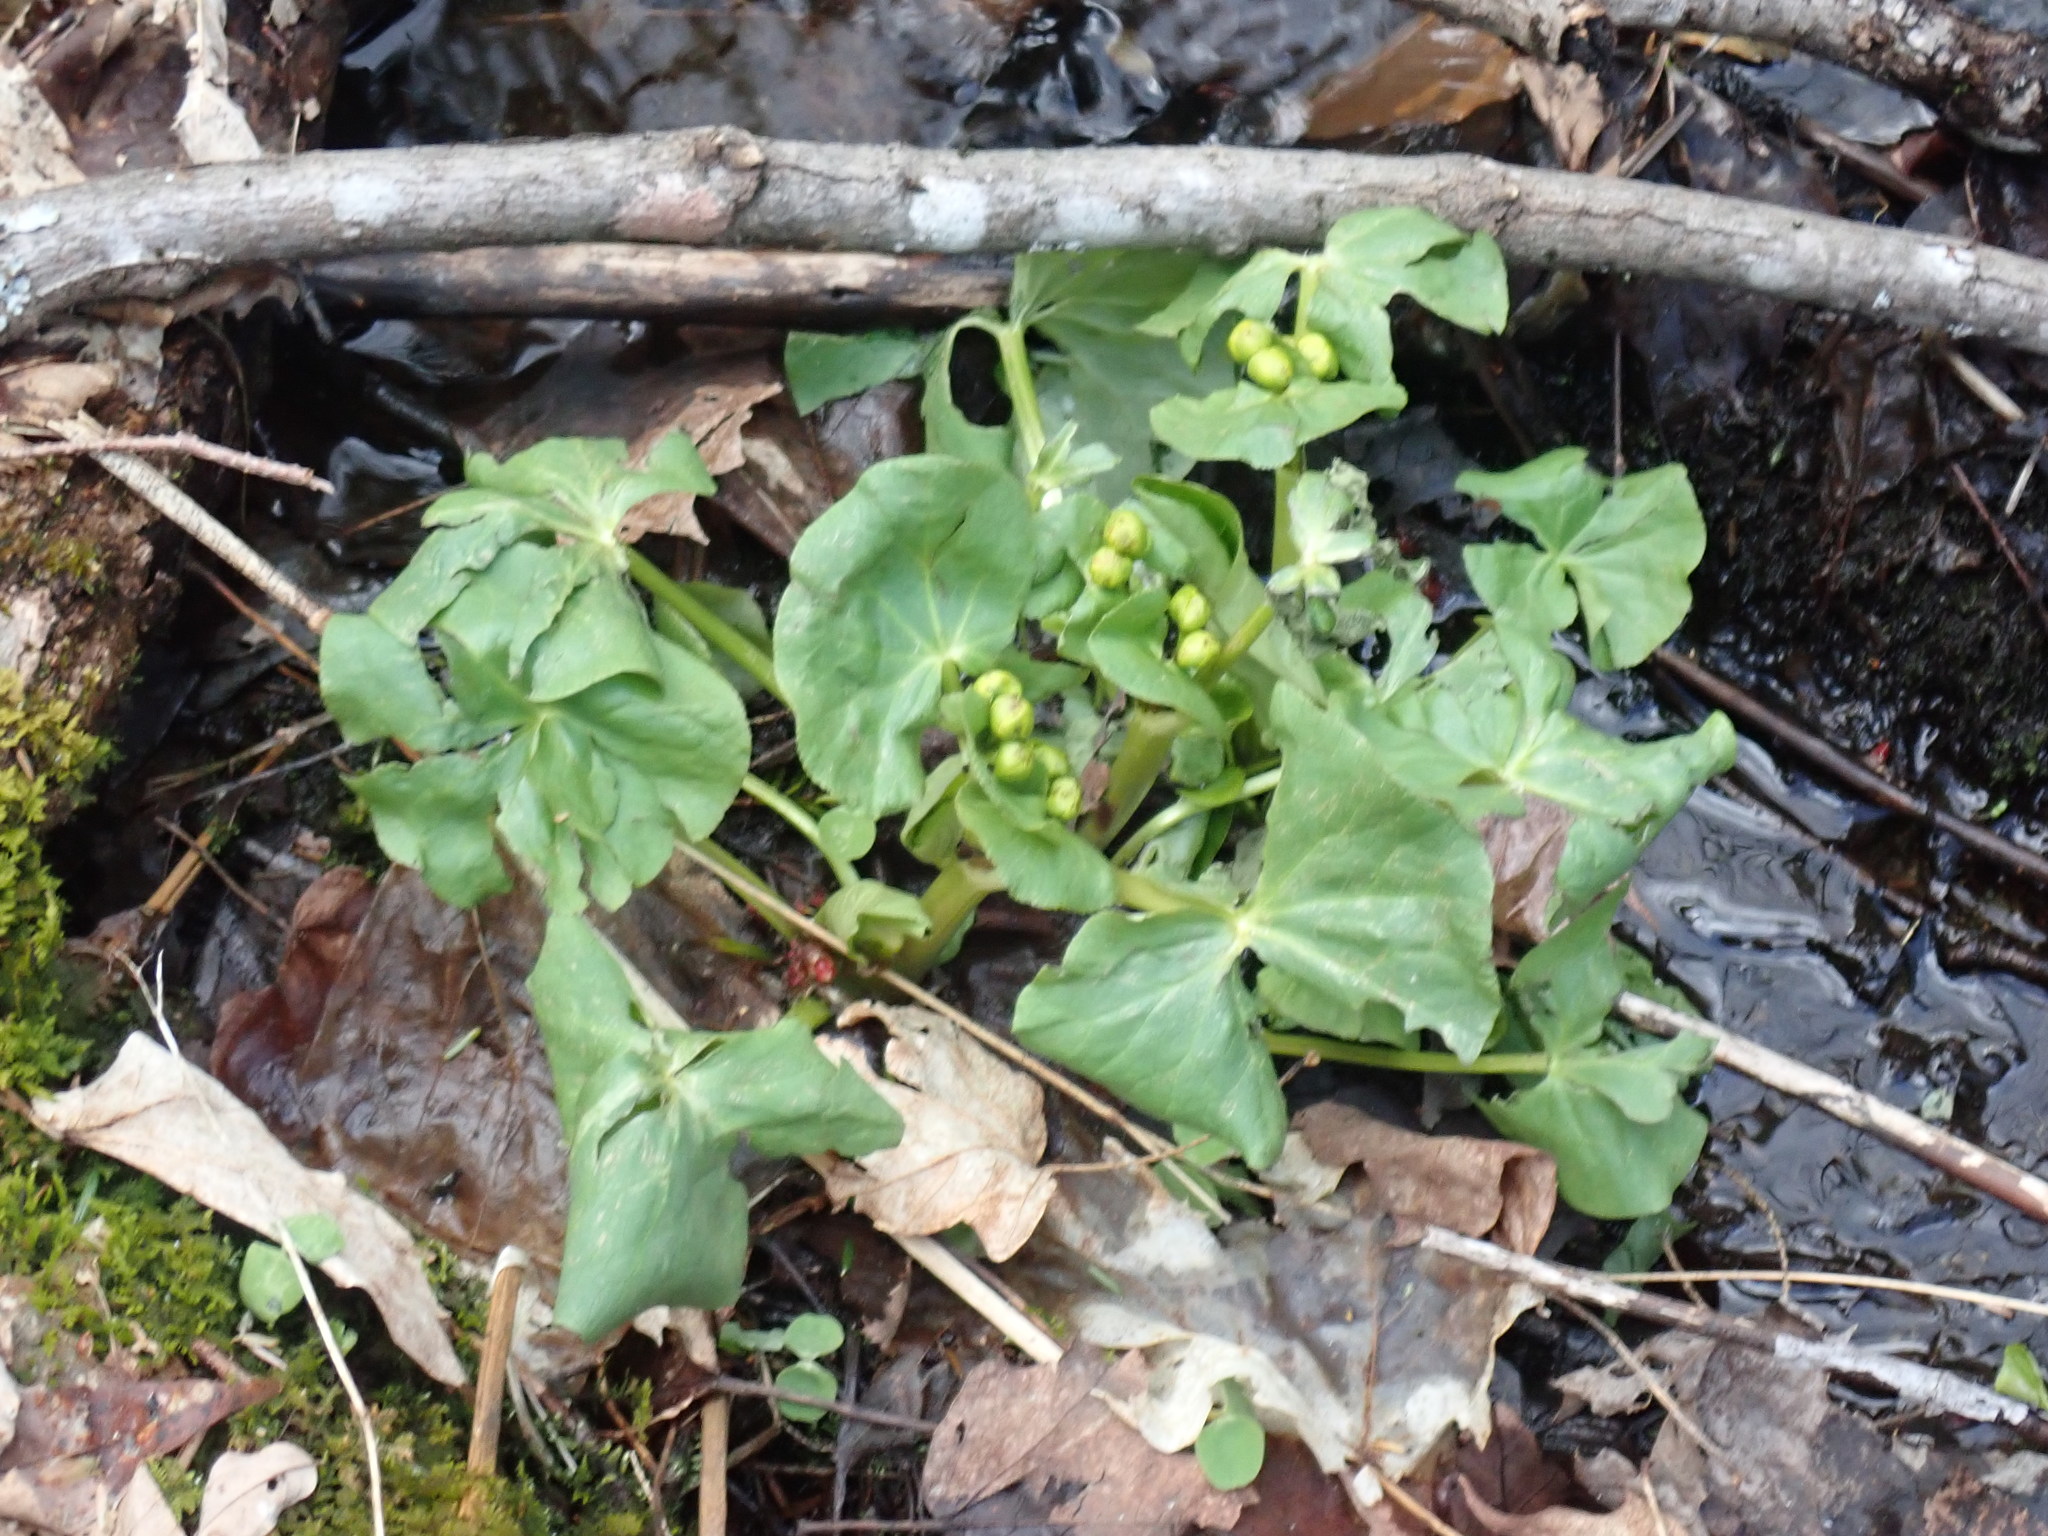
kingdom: Plantae
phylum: Tracheophyta
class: Magnoliopsida
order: Ranunculales
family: Ranunculaceae
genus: Caltha
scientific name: Caltha palustris
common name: Marsh marigold
